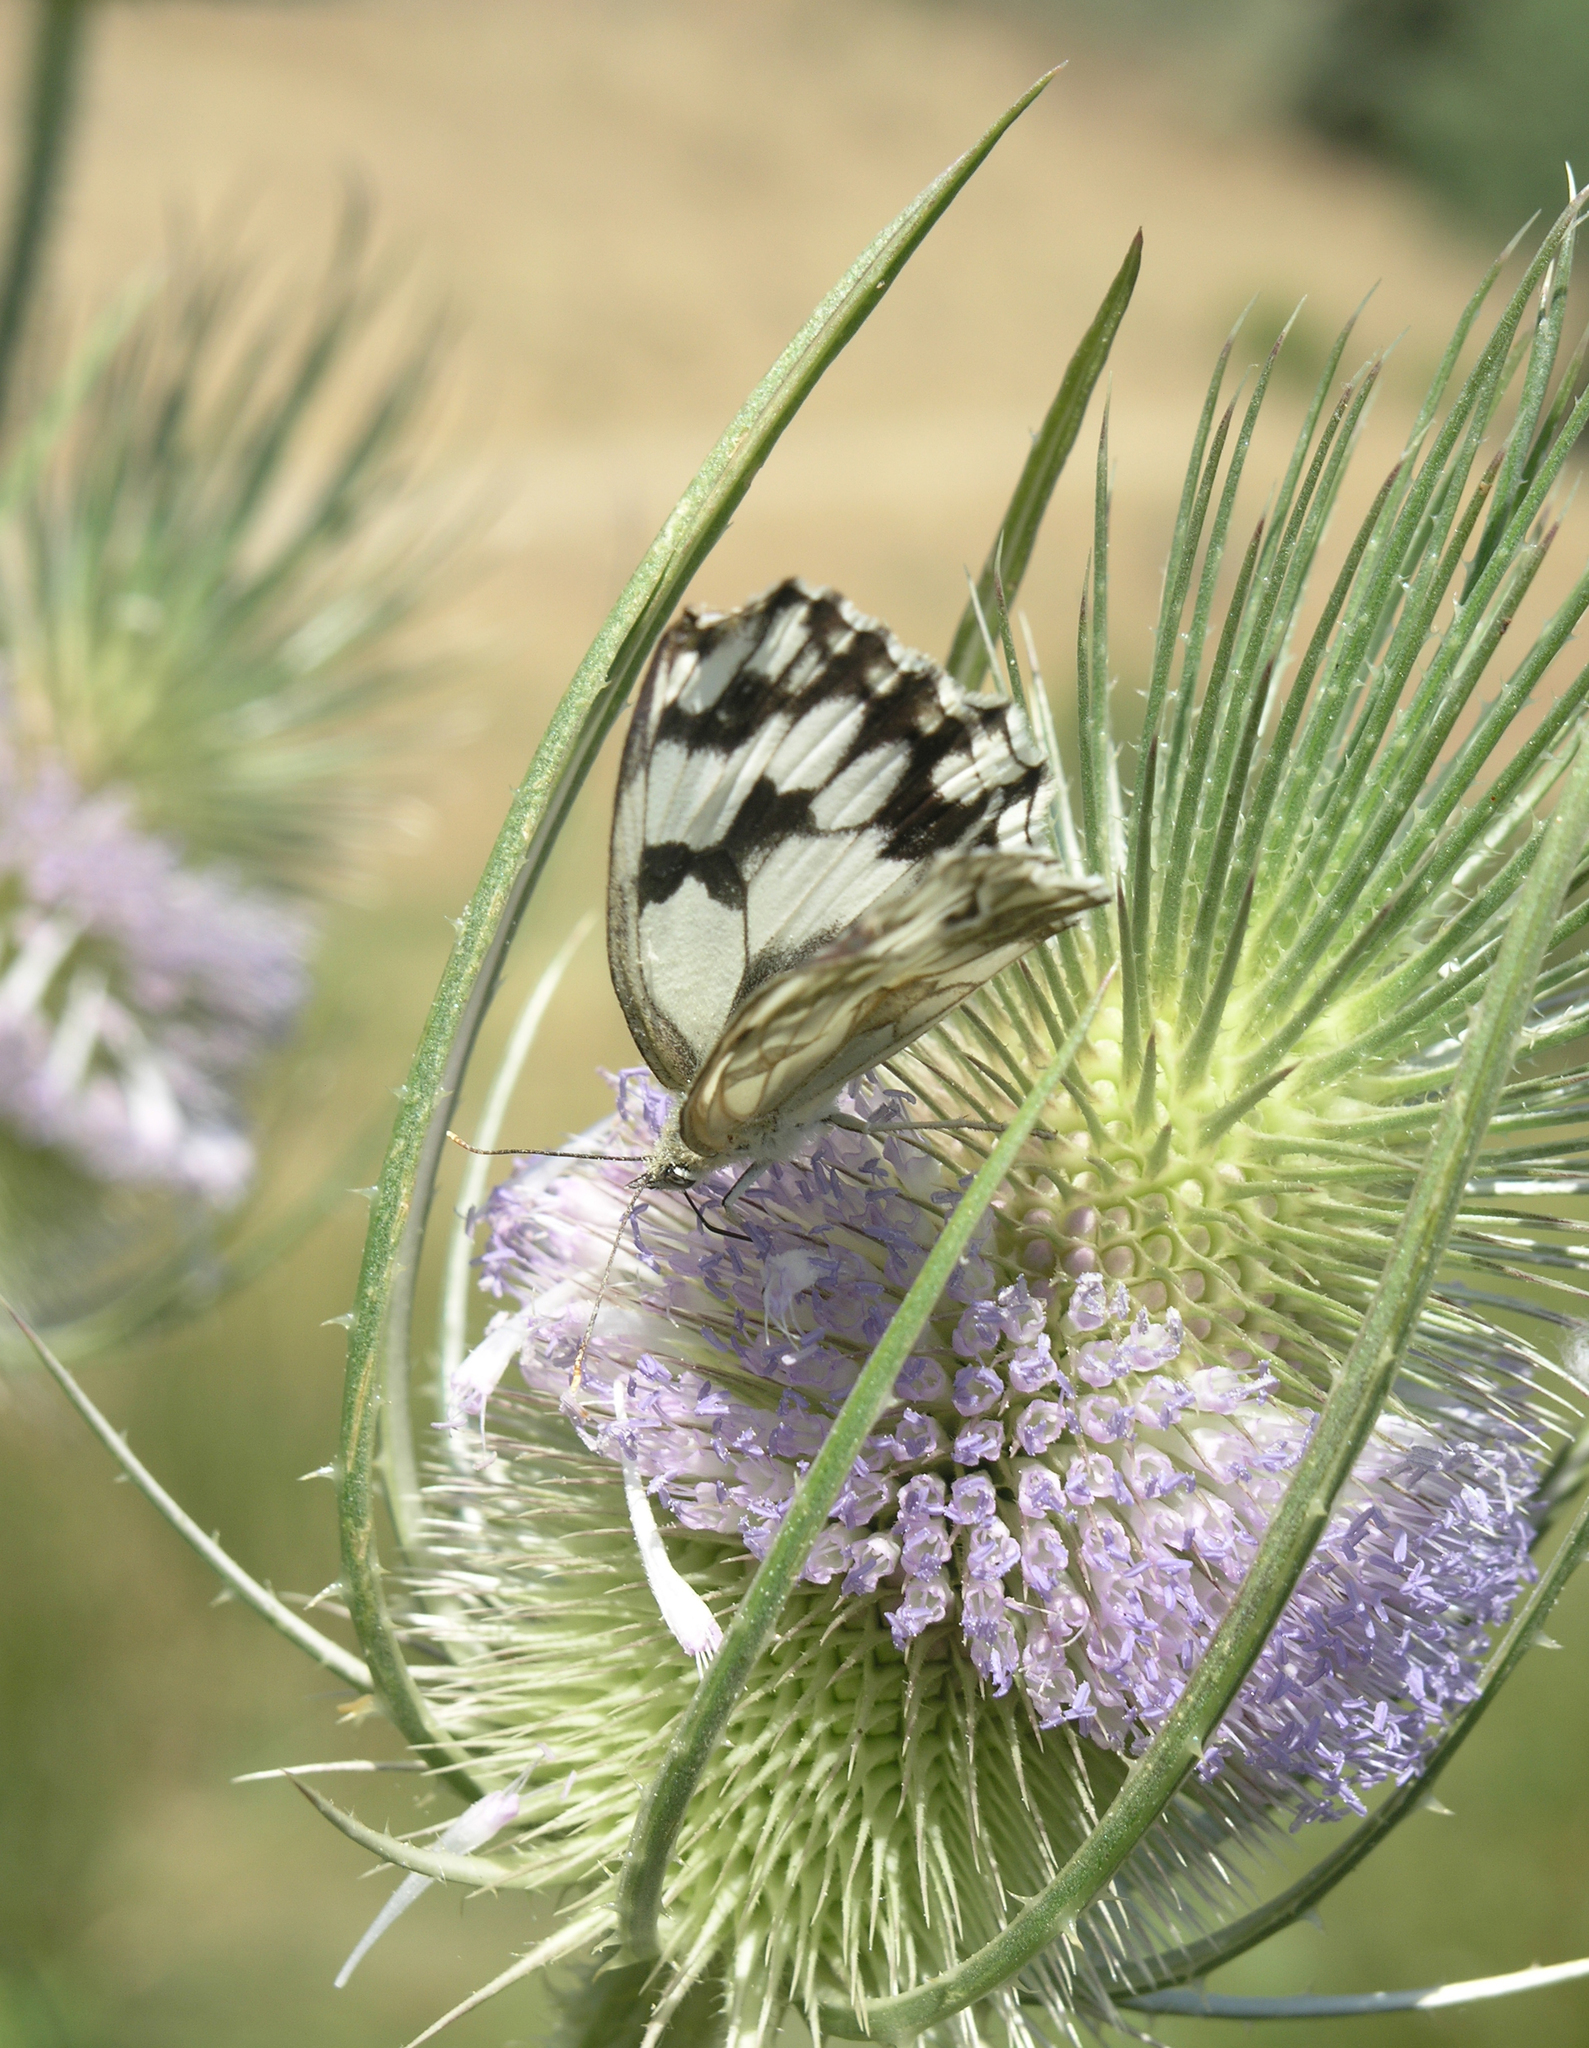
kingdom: Animalia
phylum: Arthropoda
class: Insecta
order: Lepidoptera
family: Nymphalidae
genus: Melanargia
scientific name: Melanargia lachesis
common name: Iberian marbled white
